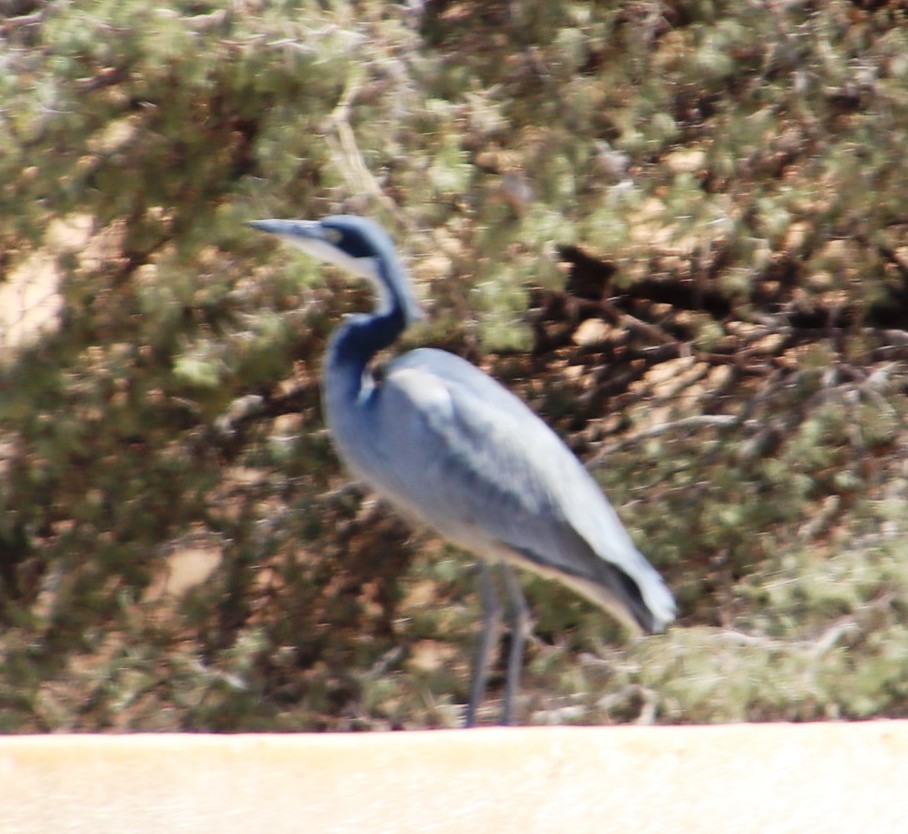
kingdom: Animalia
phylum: Chordata
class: Aves
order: Pelecaniformes
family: Ardeidae
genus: Ardea
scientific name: Ardea melanocephala
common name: Black-headed heron
